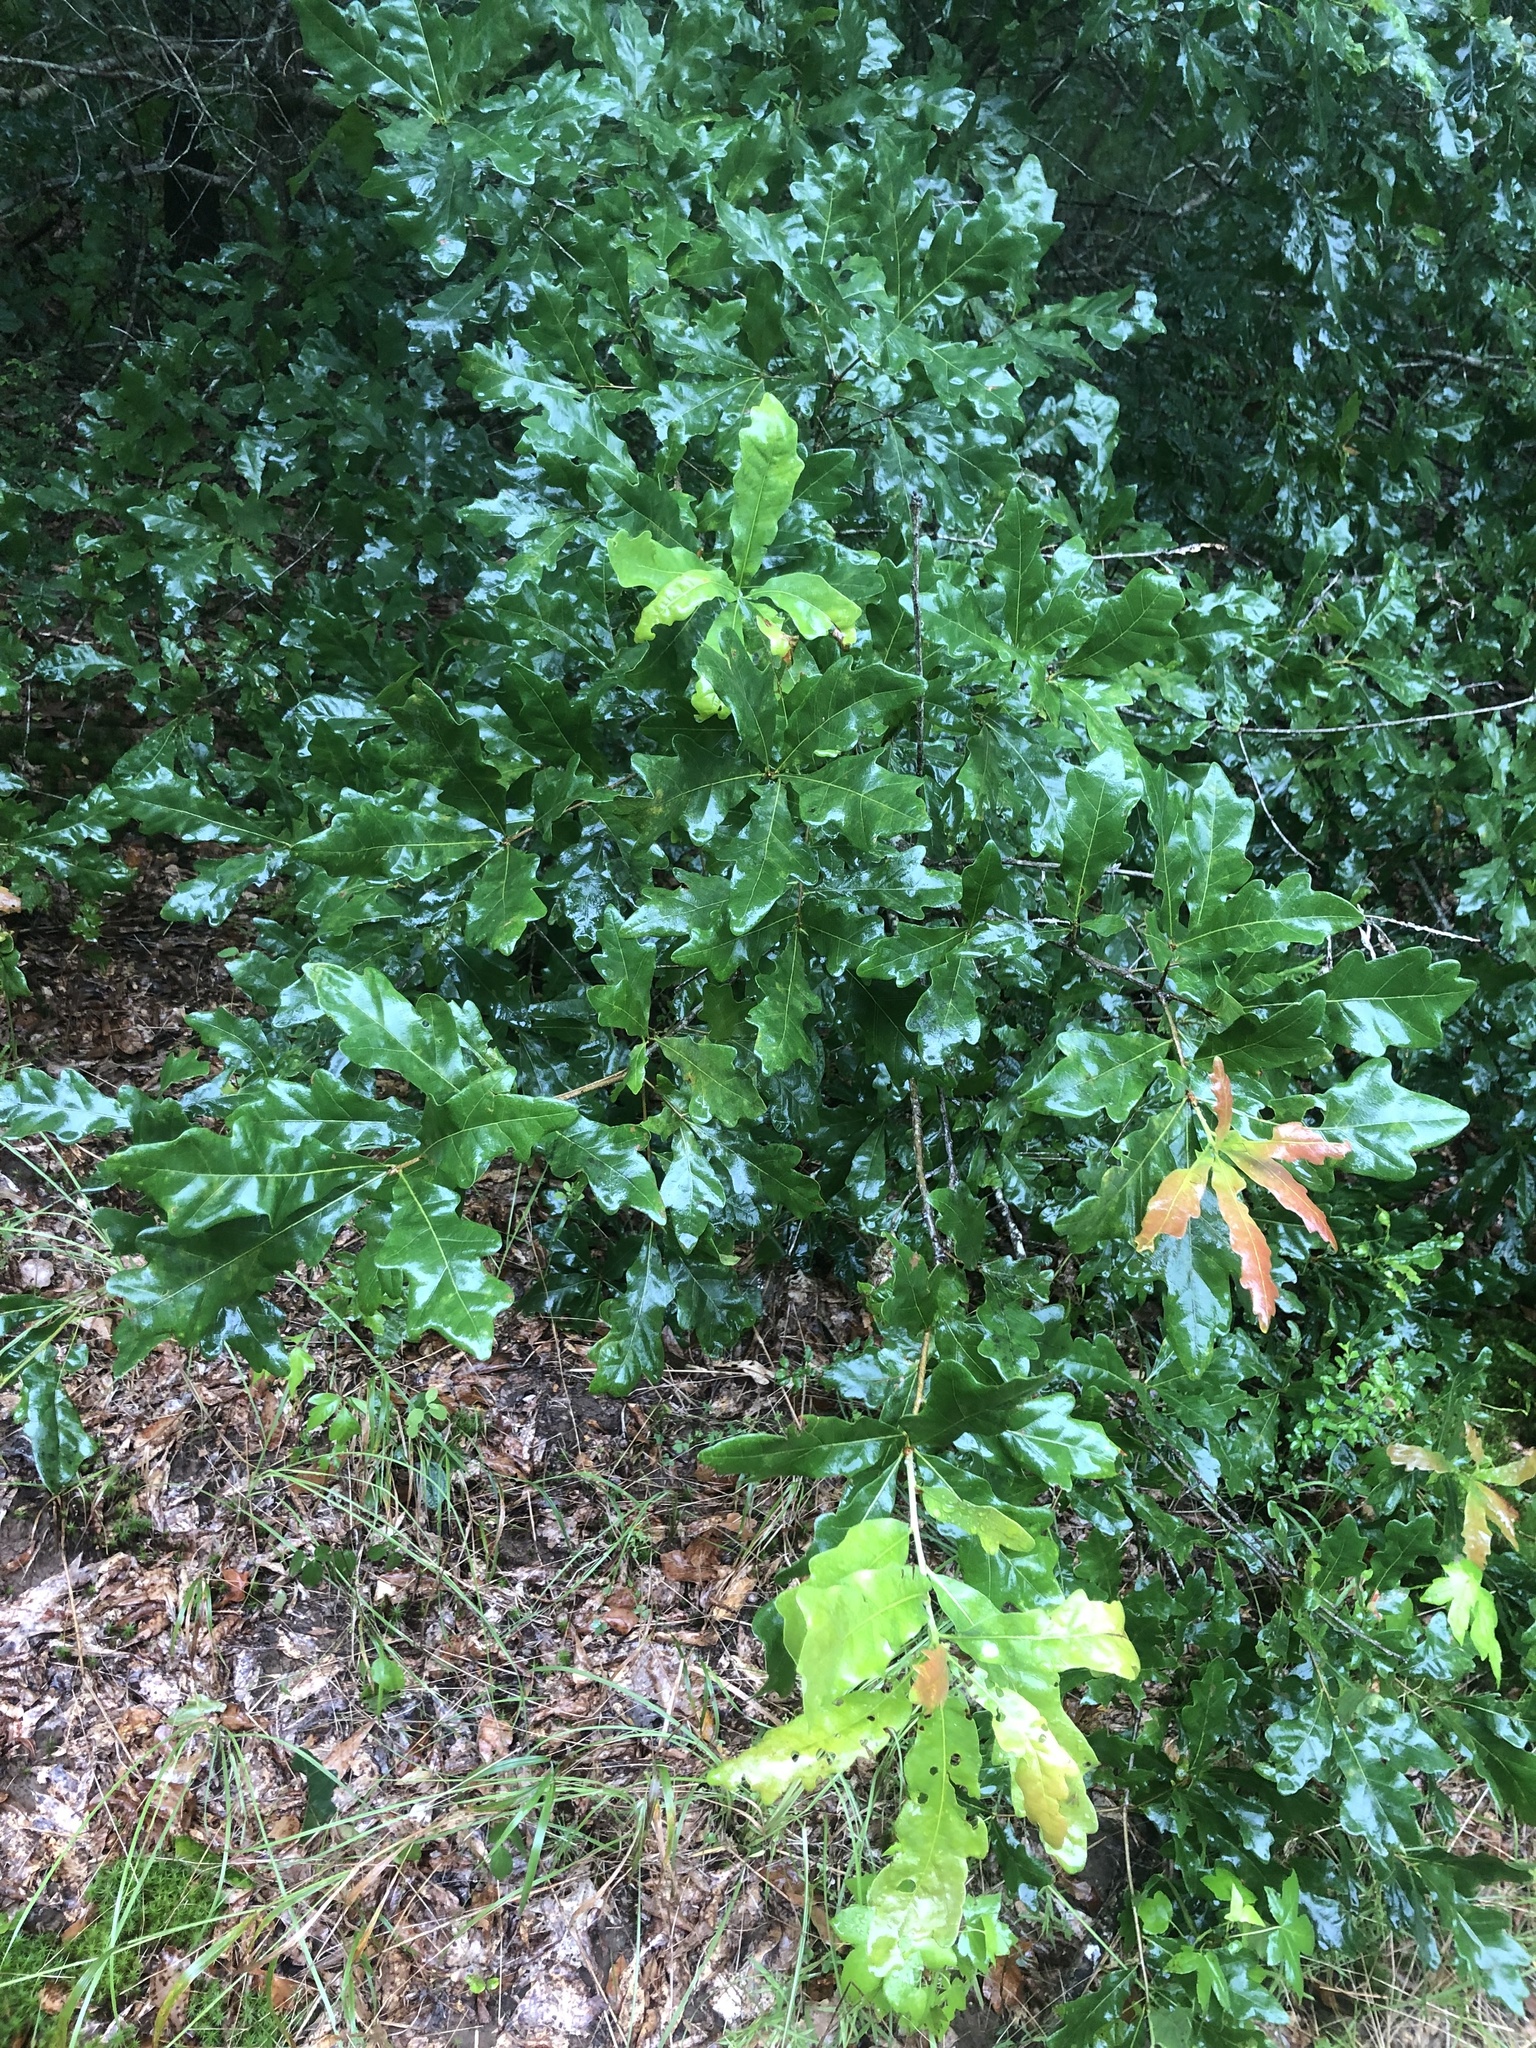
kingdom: Plantae
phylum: Tracheophyta
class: Magnoliopsida
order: Fagales
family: Fagaceae
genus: Quercus
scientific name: Quercus austrina
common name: Bastard white oak
